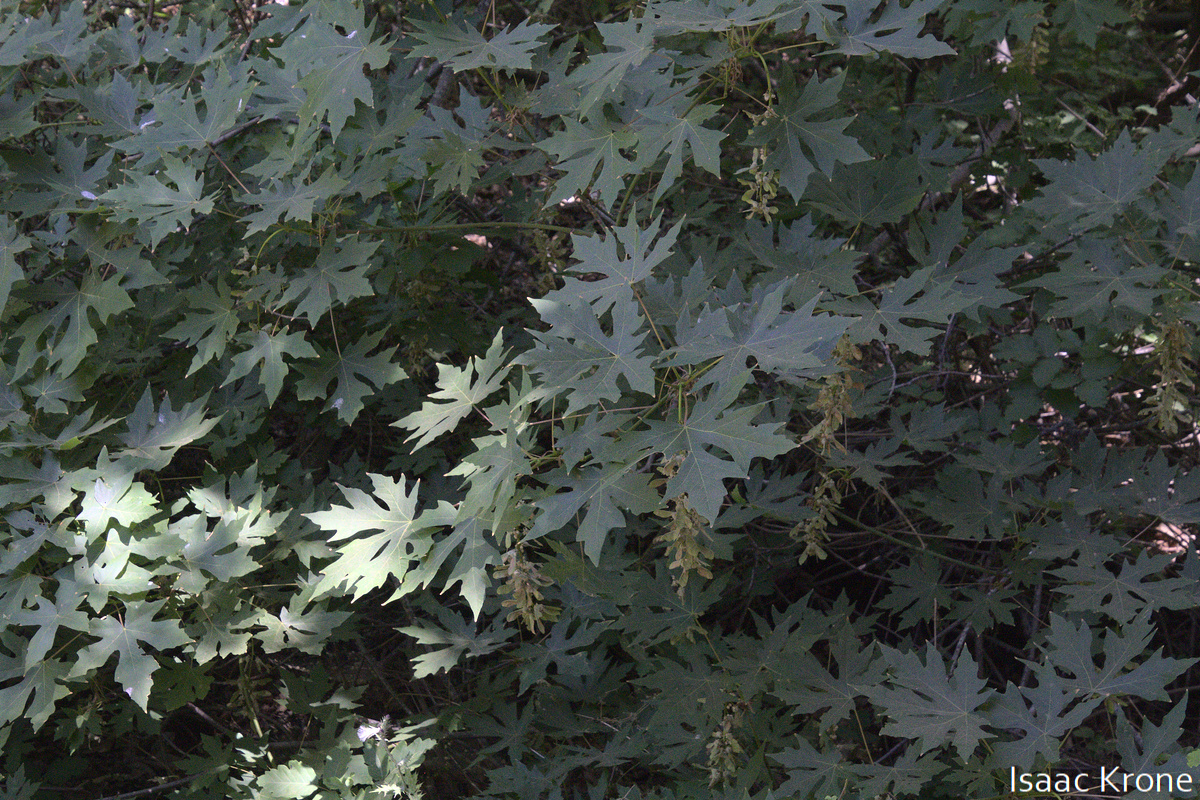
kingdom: Plantae
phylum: Tracheophyta
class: Magnoliopsida
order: Sapindales
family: Sapindaceae
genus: Acer
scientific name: Acer macrophyllum
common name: Oregon maple
